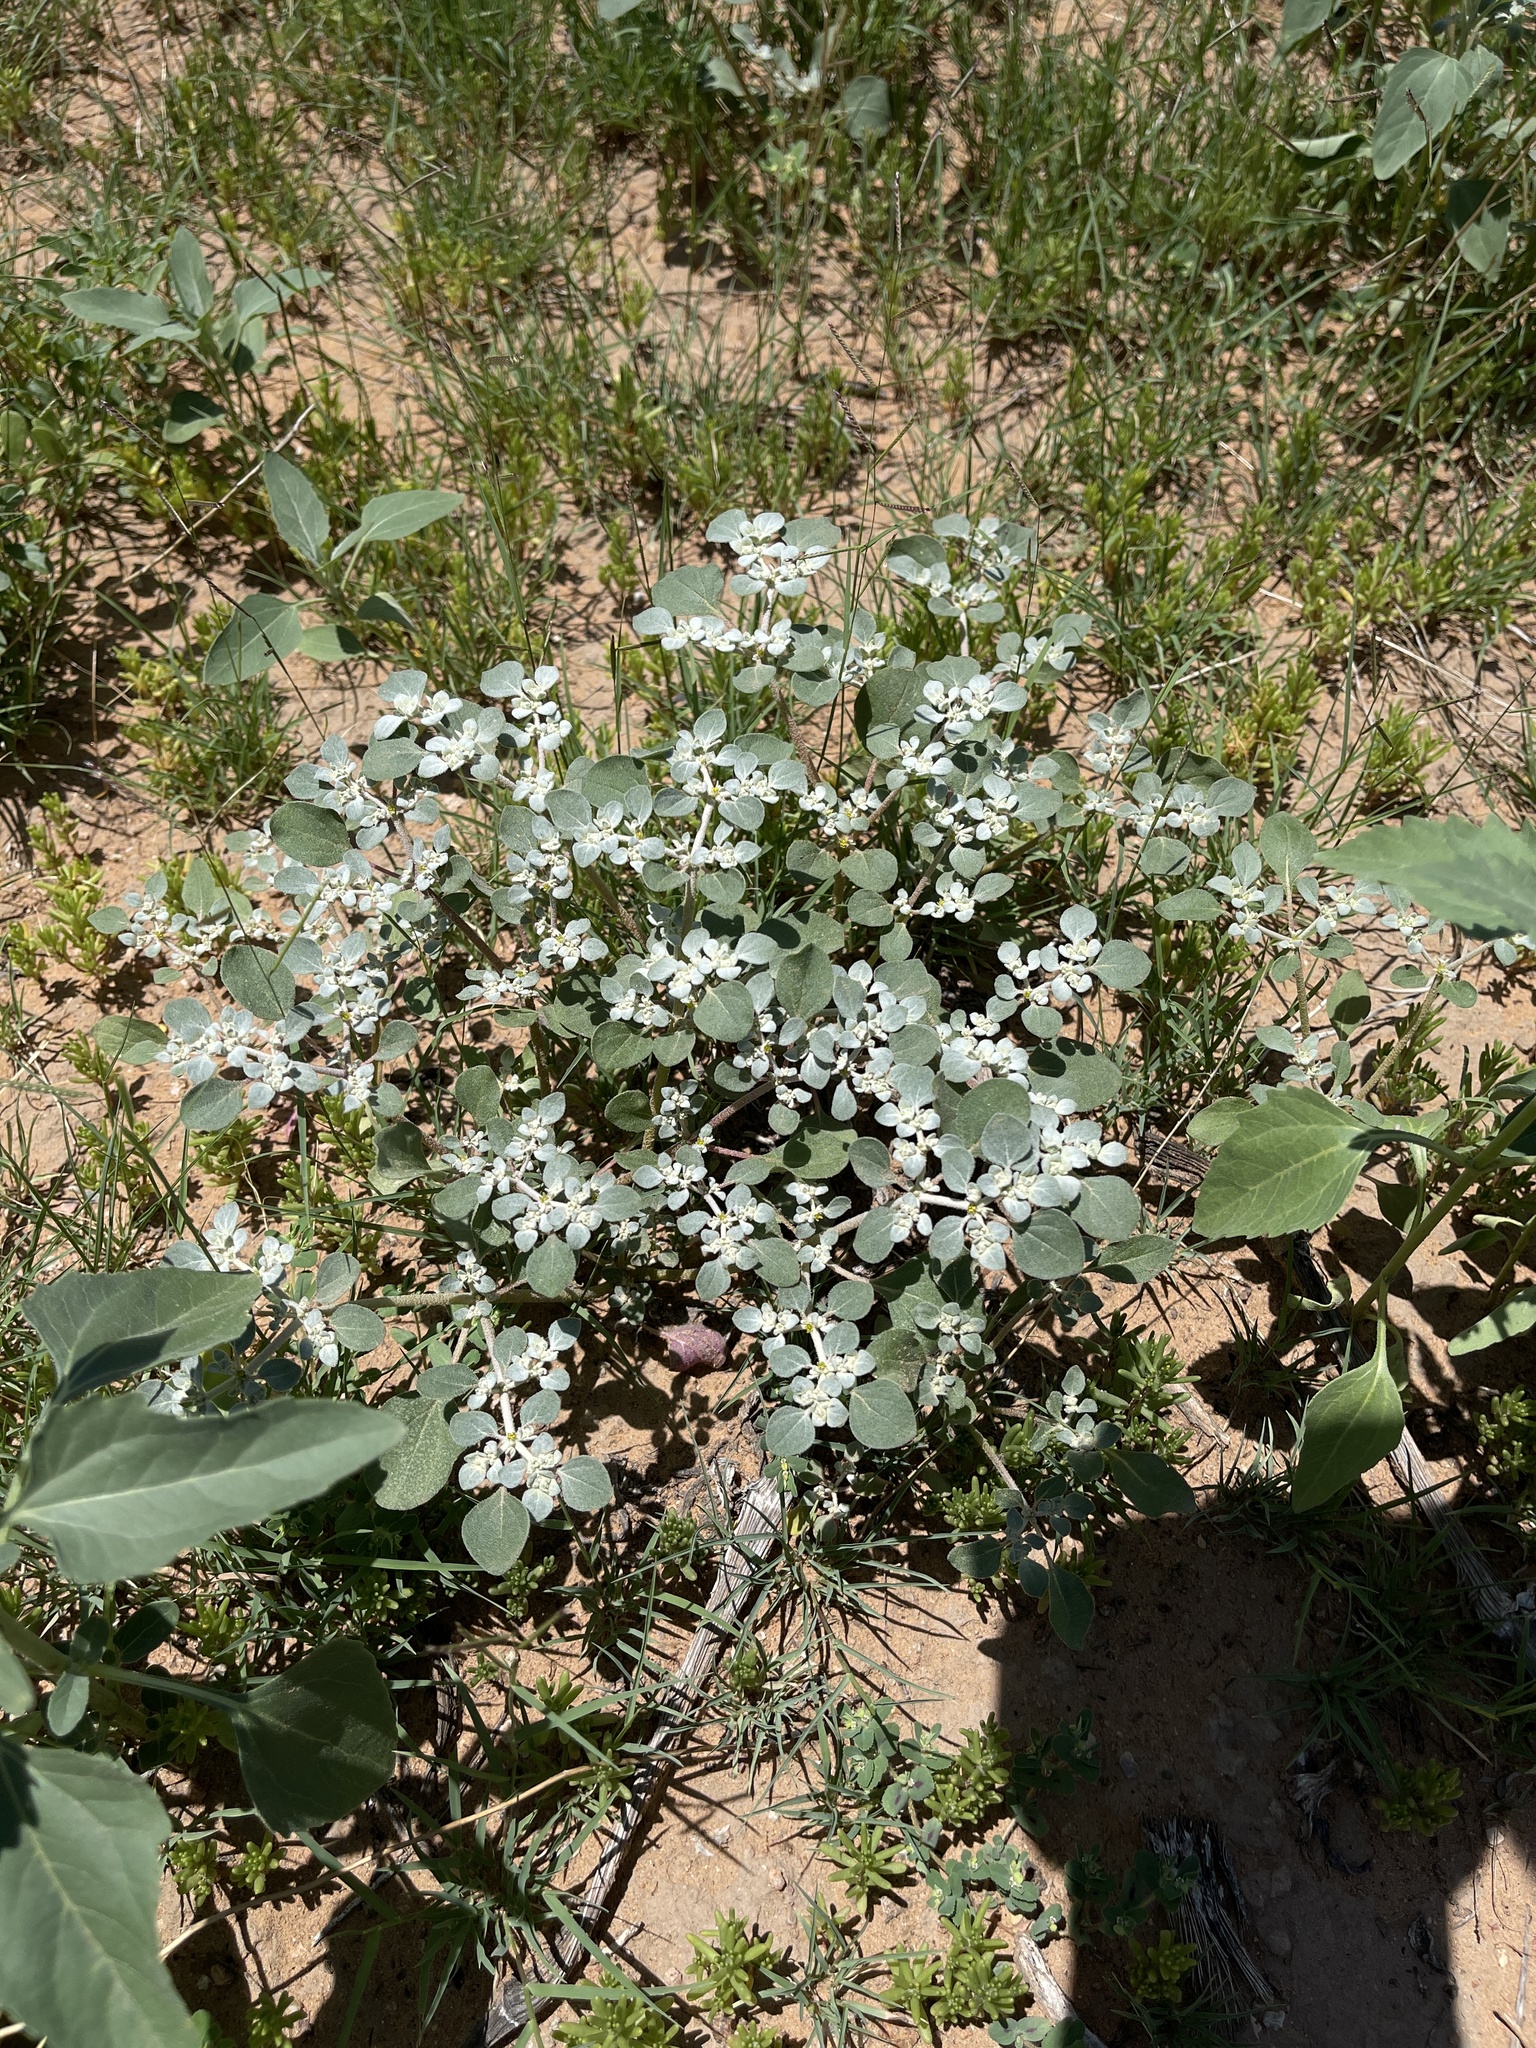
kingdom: Plantae
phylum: Tracheophyta
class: Magnoliopsida
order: Caryophyllales
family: Amaranthaceae
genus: Tidestromia
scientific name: Tidestromia lanuginosa
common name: Woolly tidestromia
